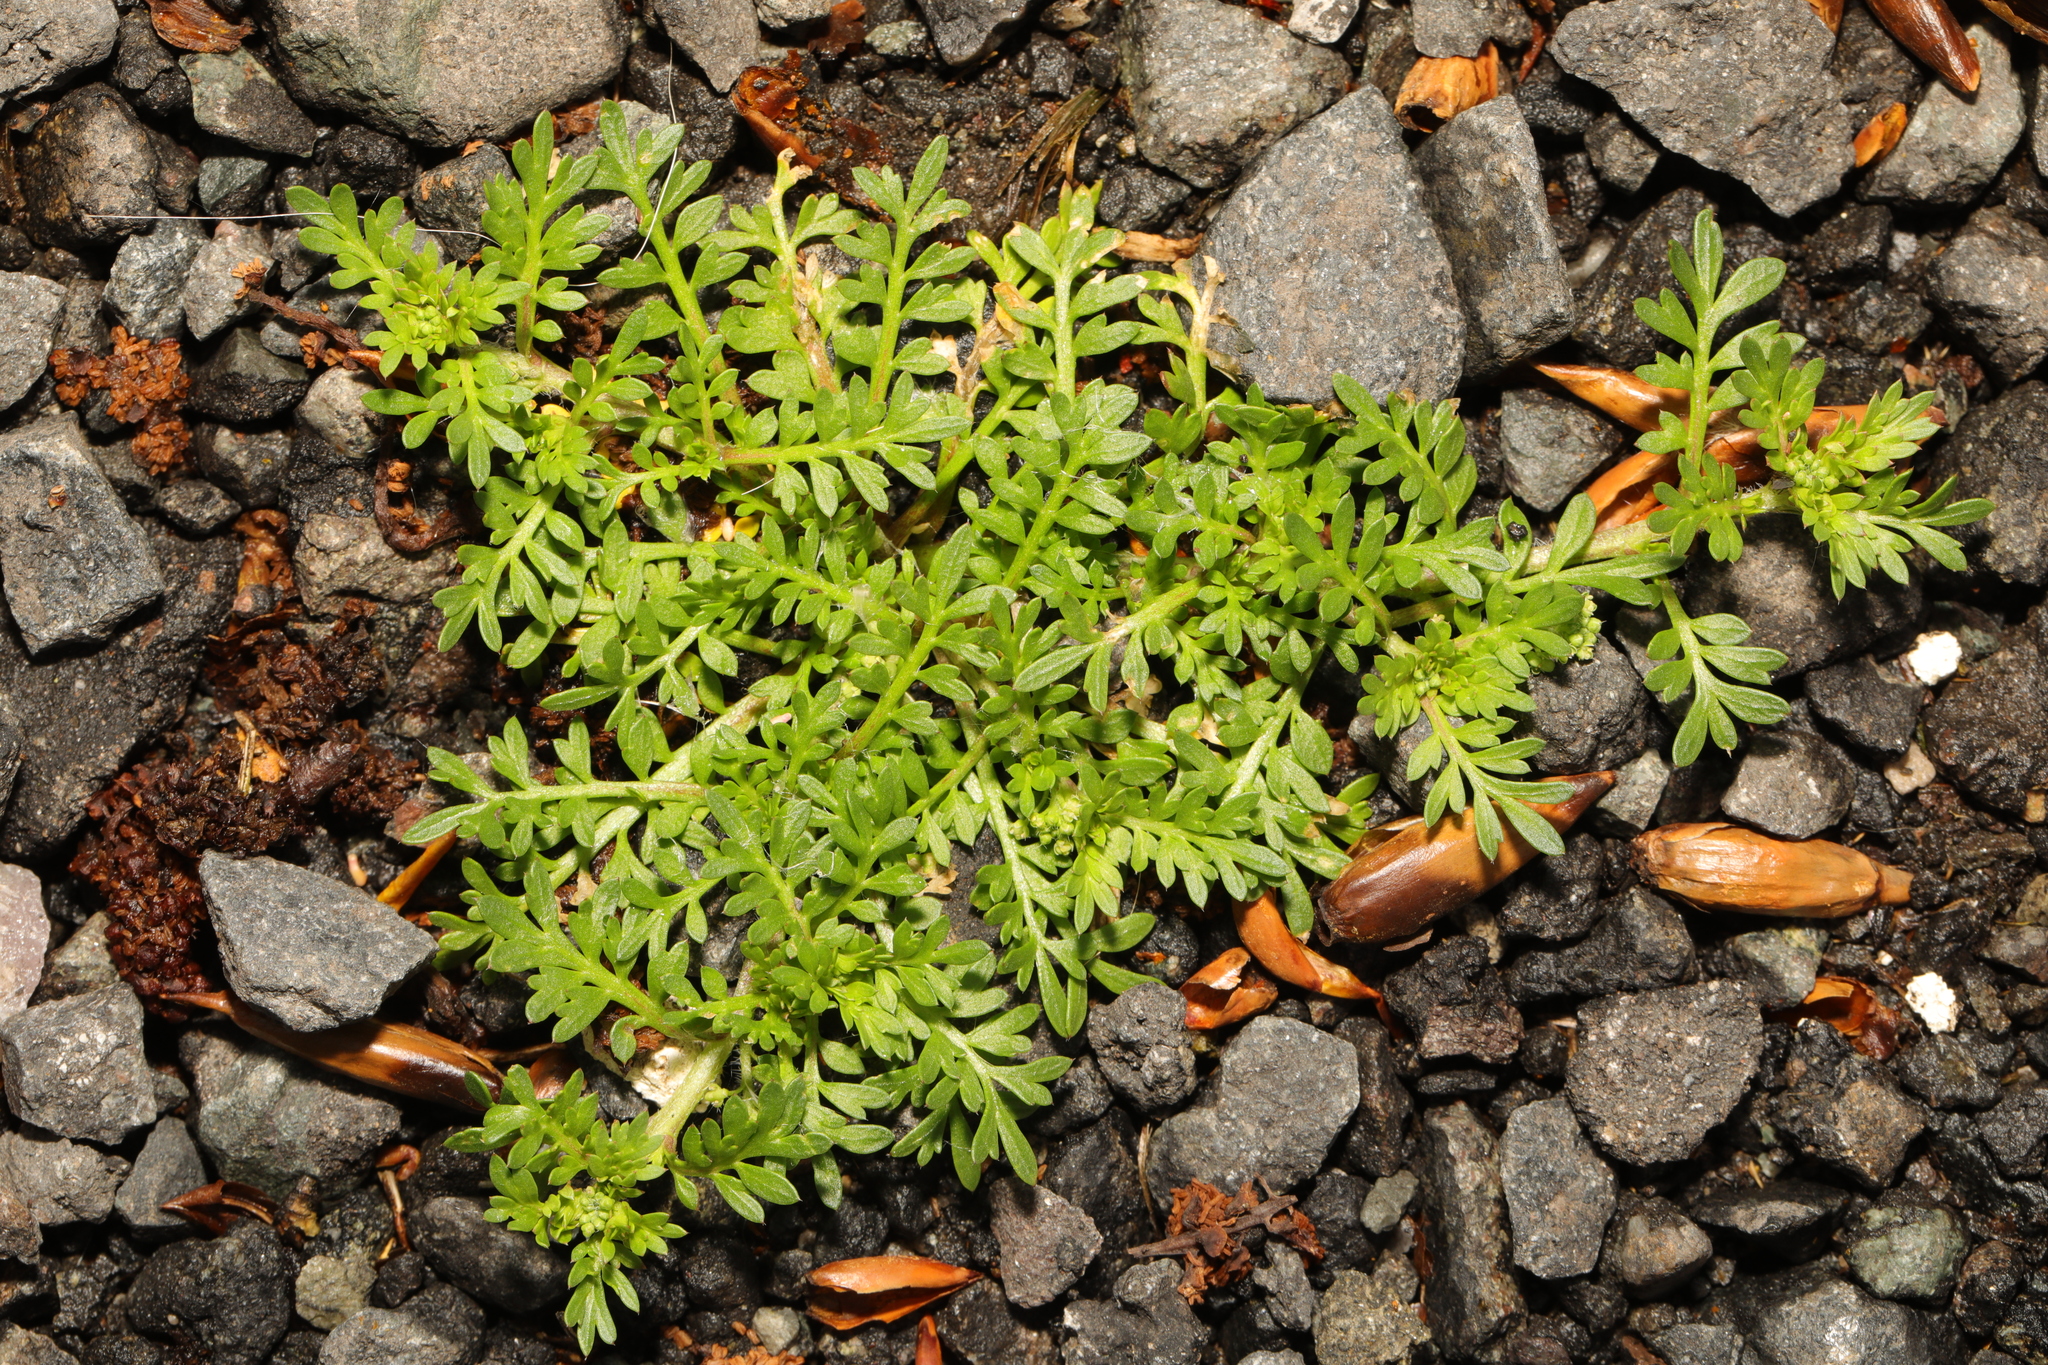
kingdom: Plantae
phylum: Tracheophyta
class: Magnoliopsida
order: Brassicales
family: Brassicaceae
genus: Lepidium
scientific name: Lepidium didymum
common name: Lesser swinecress
